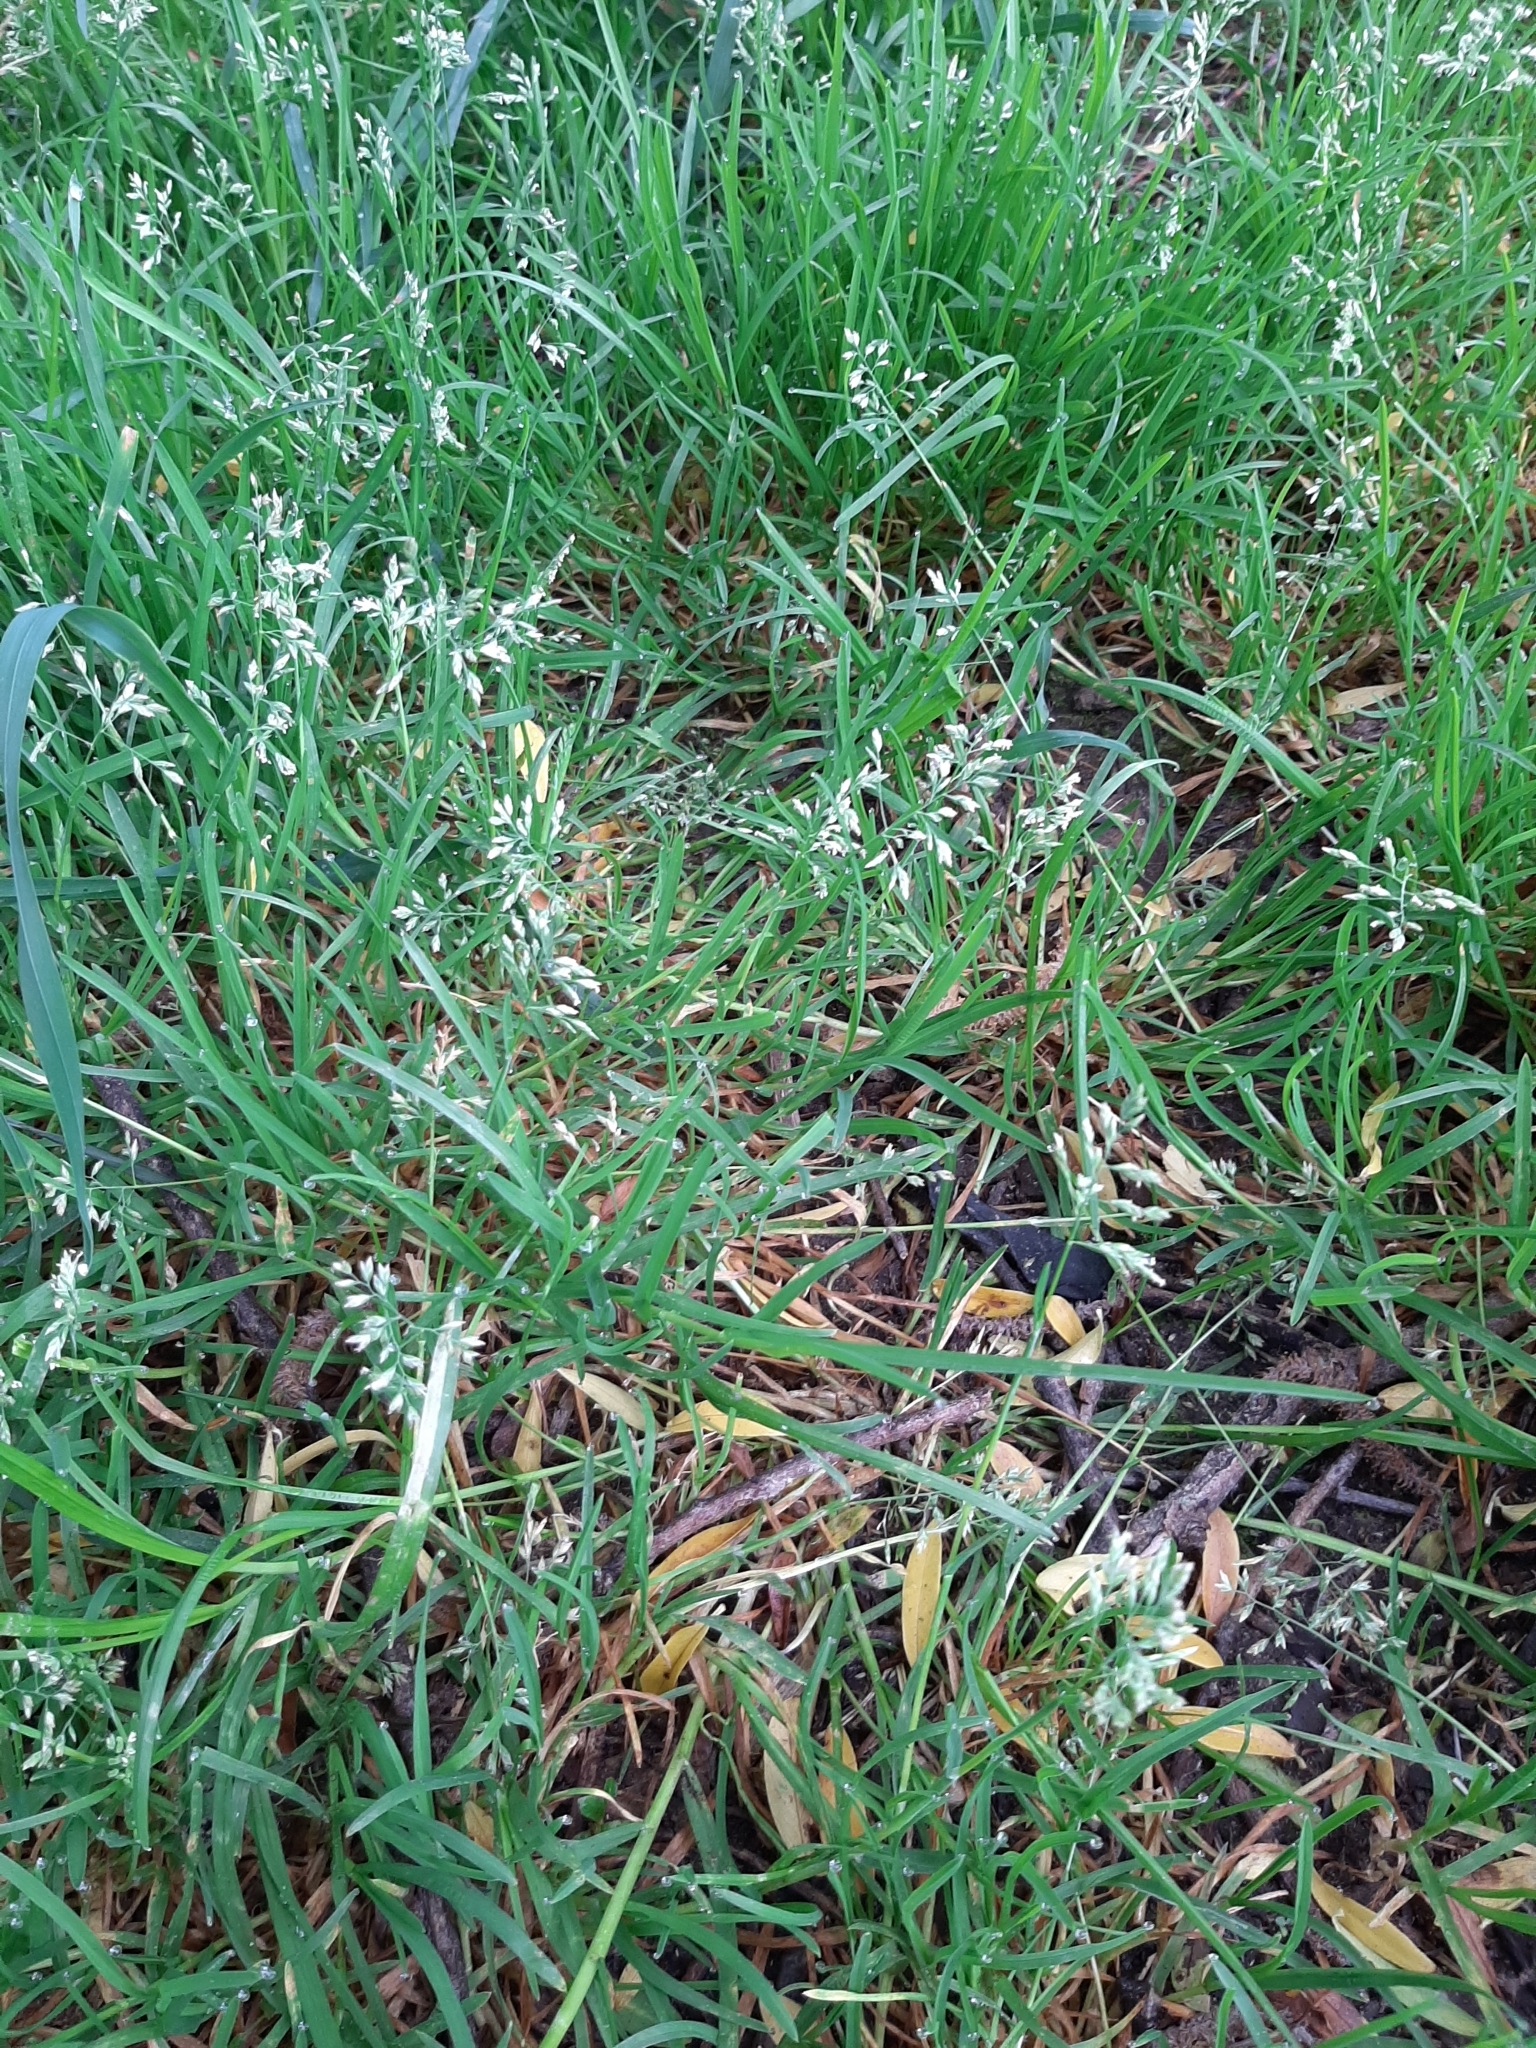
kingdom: Plantae
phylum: Tracheophyta
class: Liliopsida
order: Poales
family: Poaceae
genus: Poa
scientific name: Poa annua
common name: Annual bluegrass
